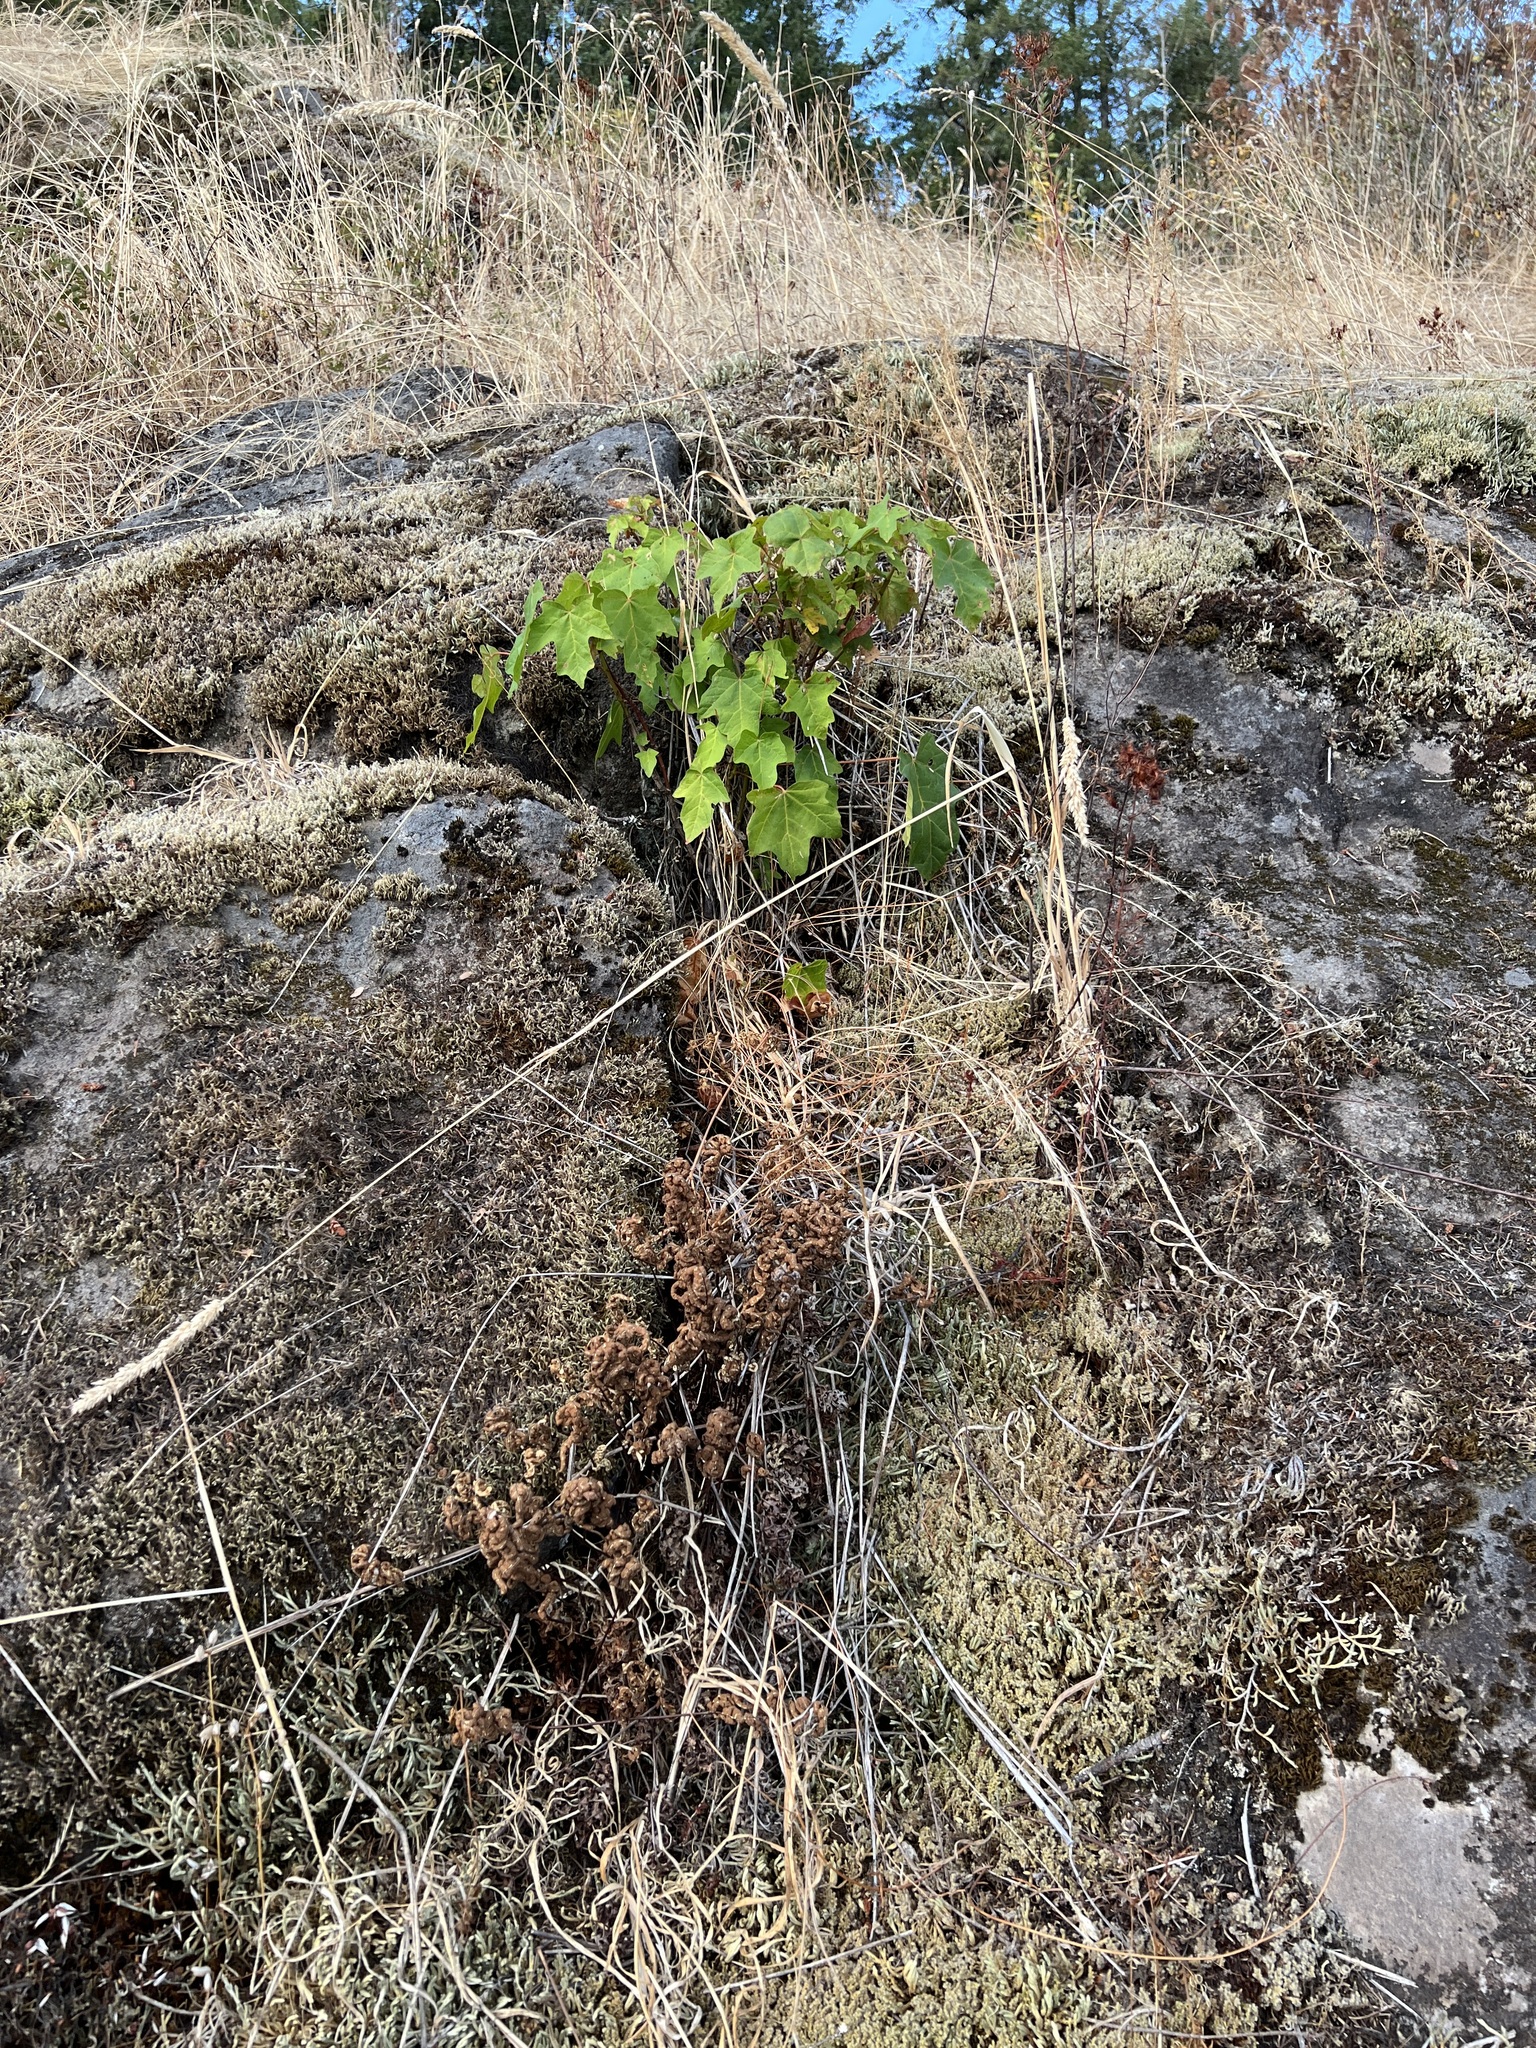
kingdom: Plantae
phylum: Tracheophyta
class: Polypodiopsida
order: Polypodiales
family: Pteridaceae
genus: Pentagramma
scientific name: Pentagramma triangularis
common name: Gold fern
